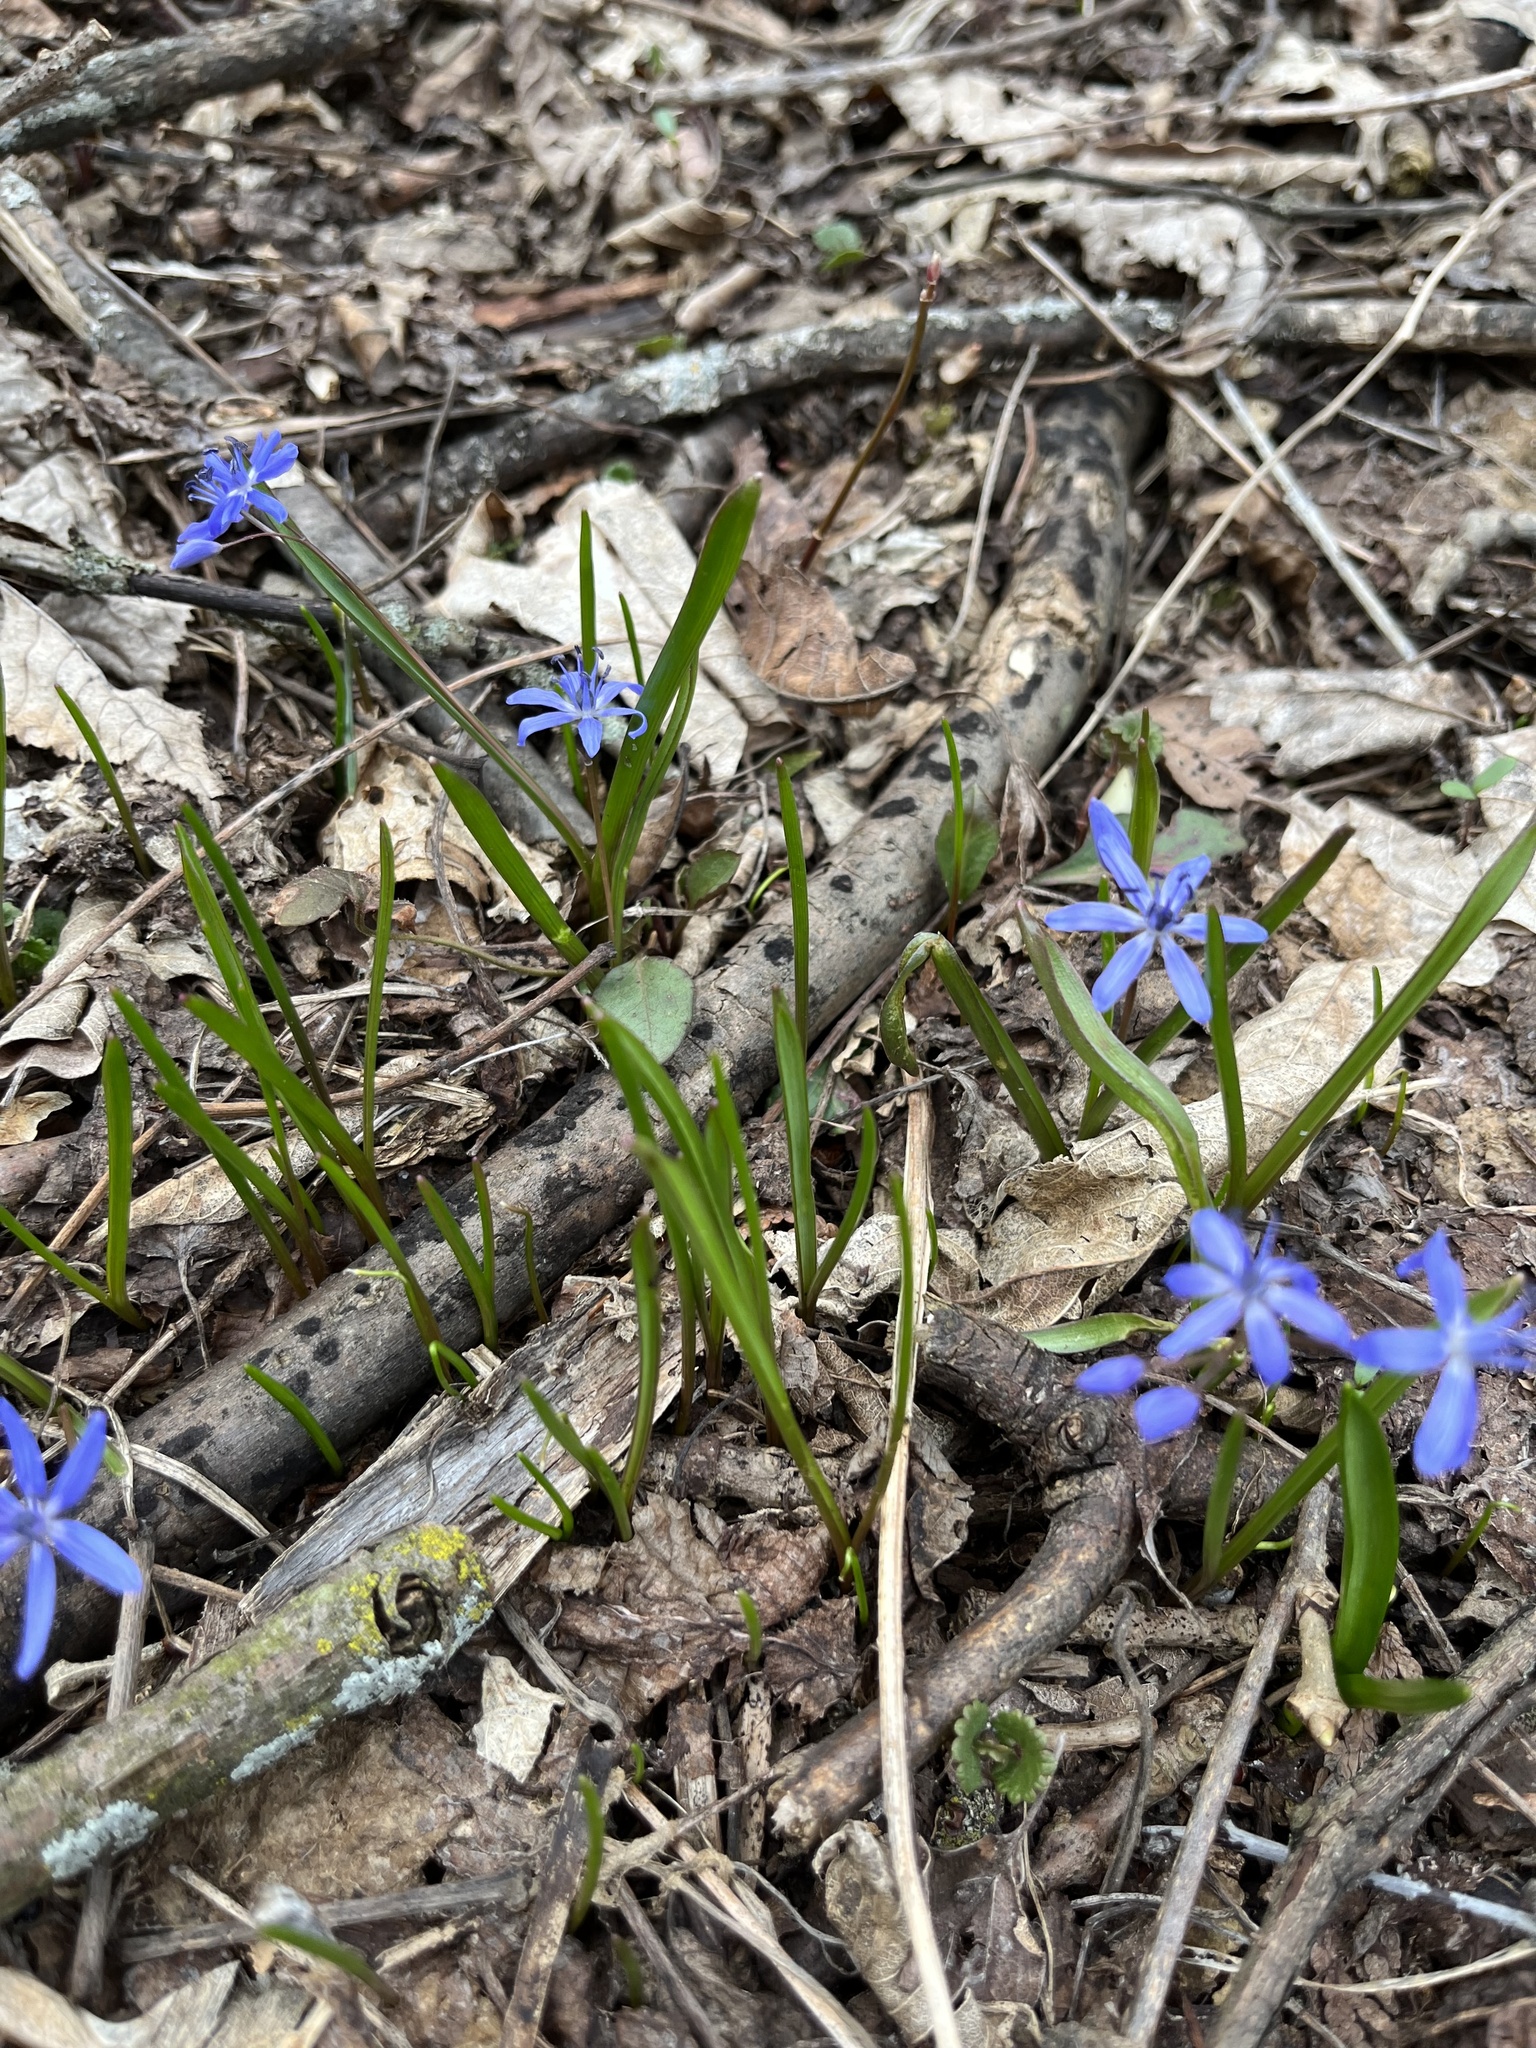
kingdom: Plantae
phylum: Tracheophyta
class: Liliopsida
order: Asparagales
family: Asparagaceae
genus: Scilla
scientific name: Scilla siberica
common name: Siberian squill
